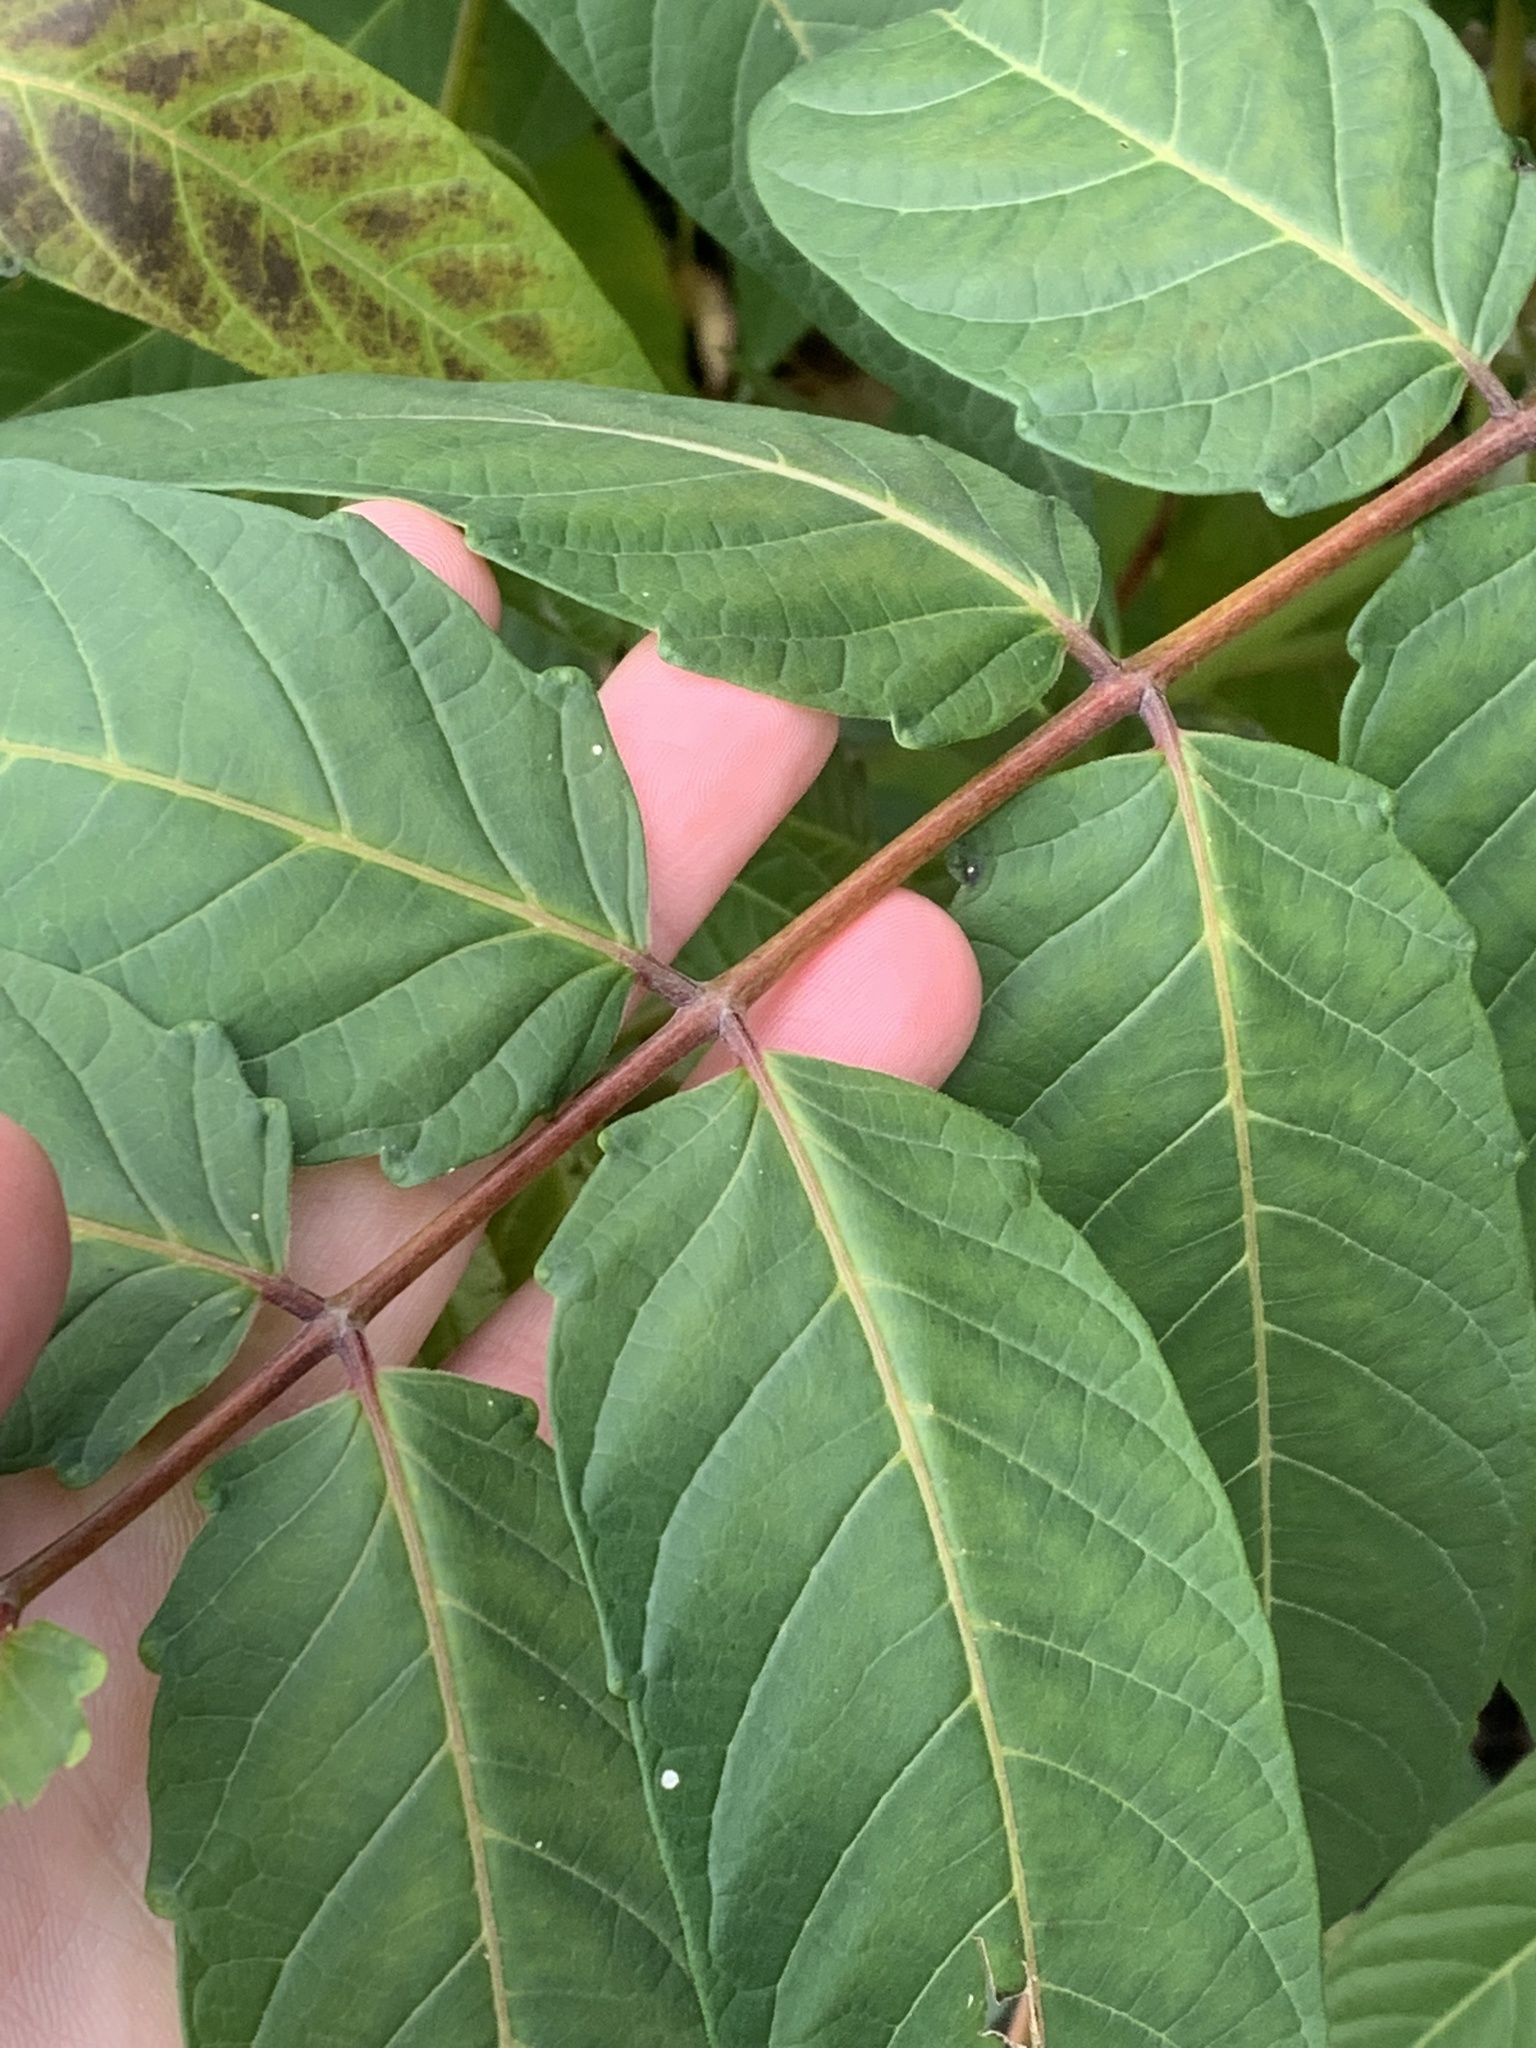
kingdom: Plantae
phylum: Tracheophyta
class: Magnoliopsida
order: Sapindales
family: Simaroubaceae
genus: Ailanthus
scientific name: Ailanthus altissima
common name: Tree-of-heaven
